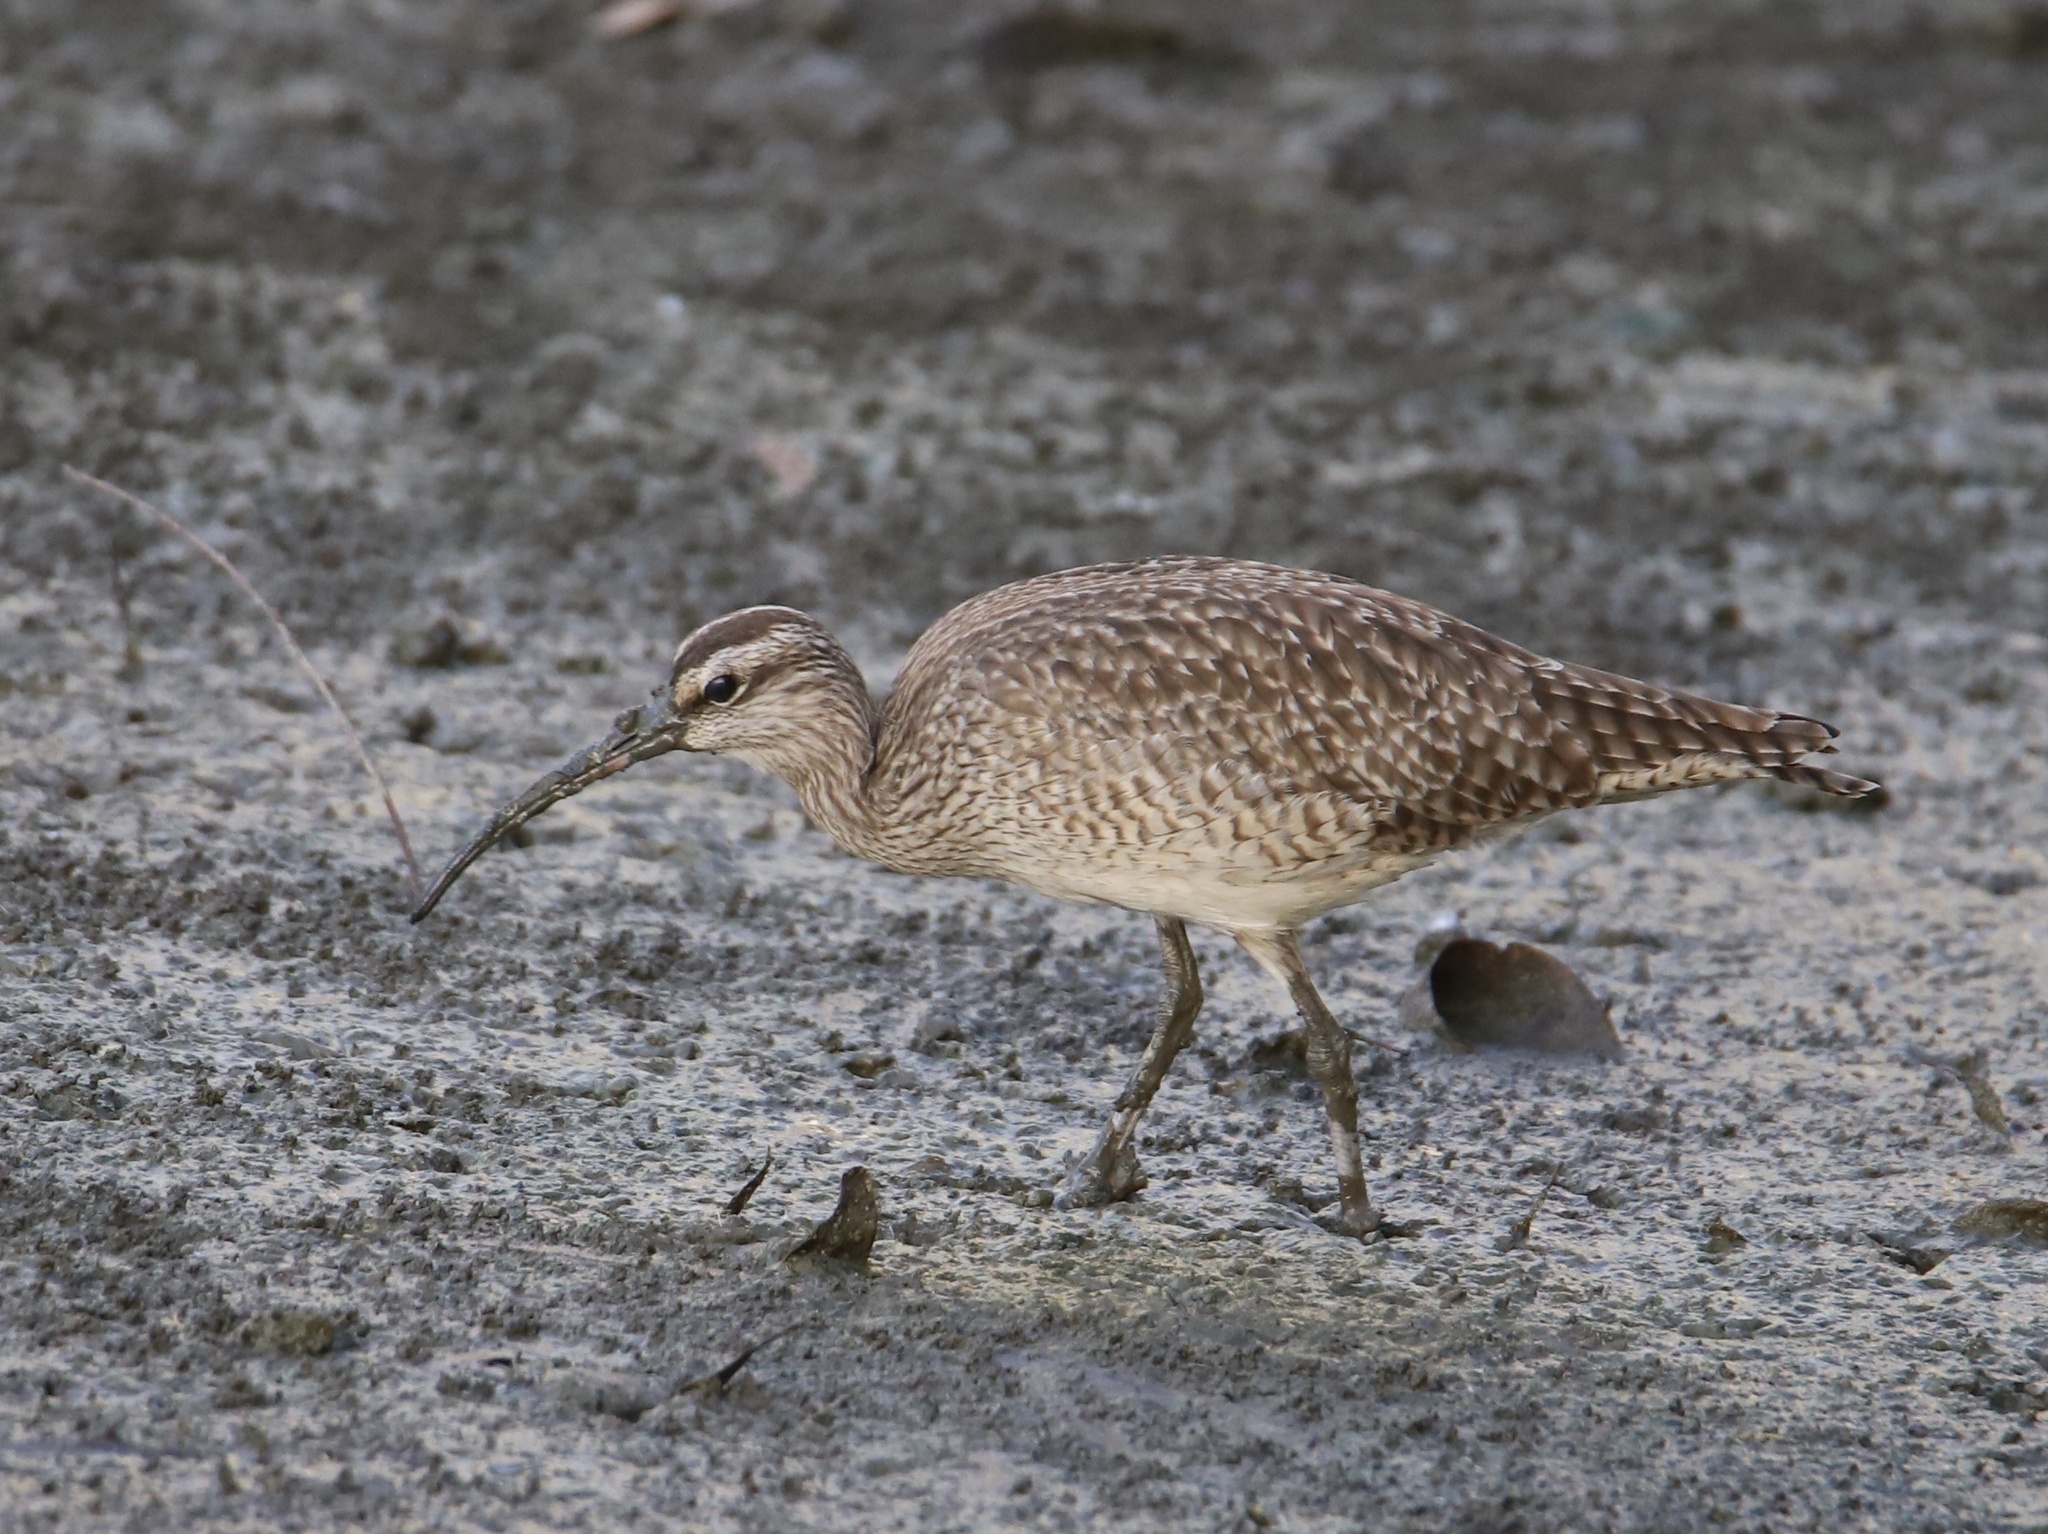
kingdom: Animalia
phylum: Chordata
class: Aves
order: Charadriiformes
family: Scolopacidae
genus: Numenius
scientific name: Numenius phaeopus
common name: Whimbrel
